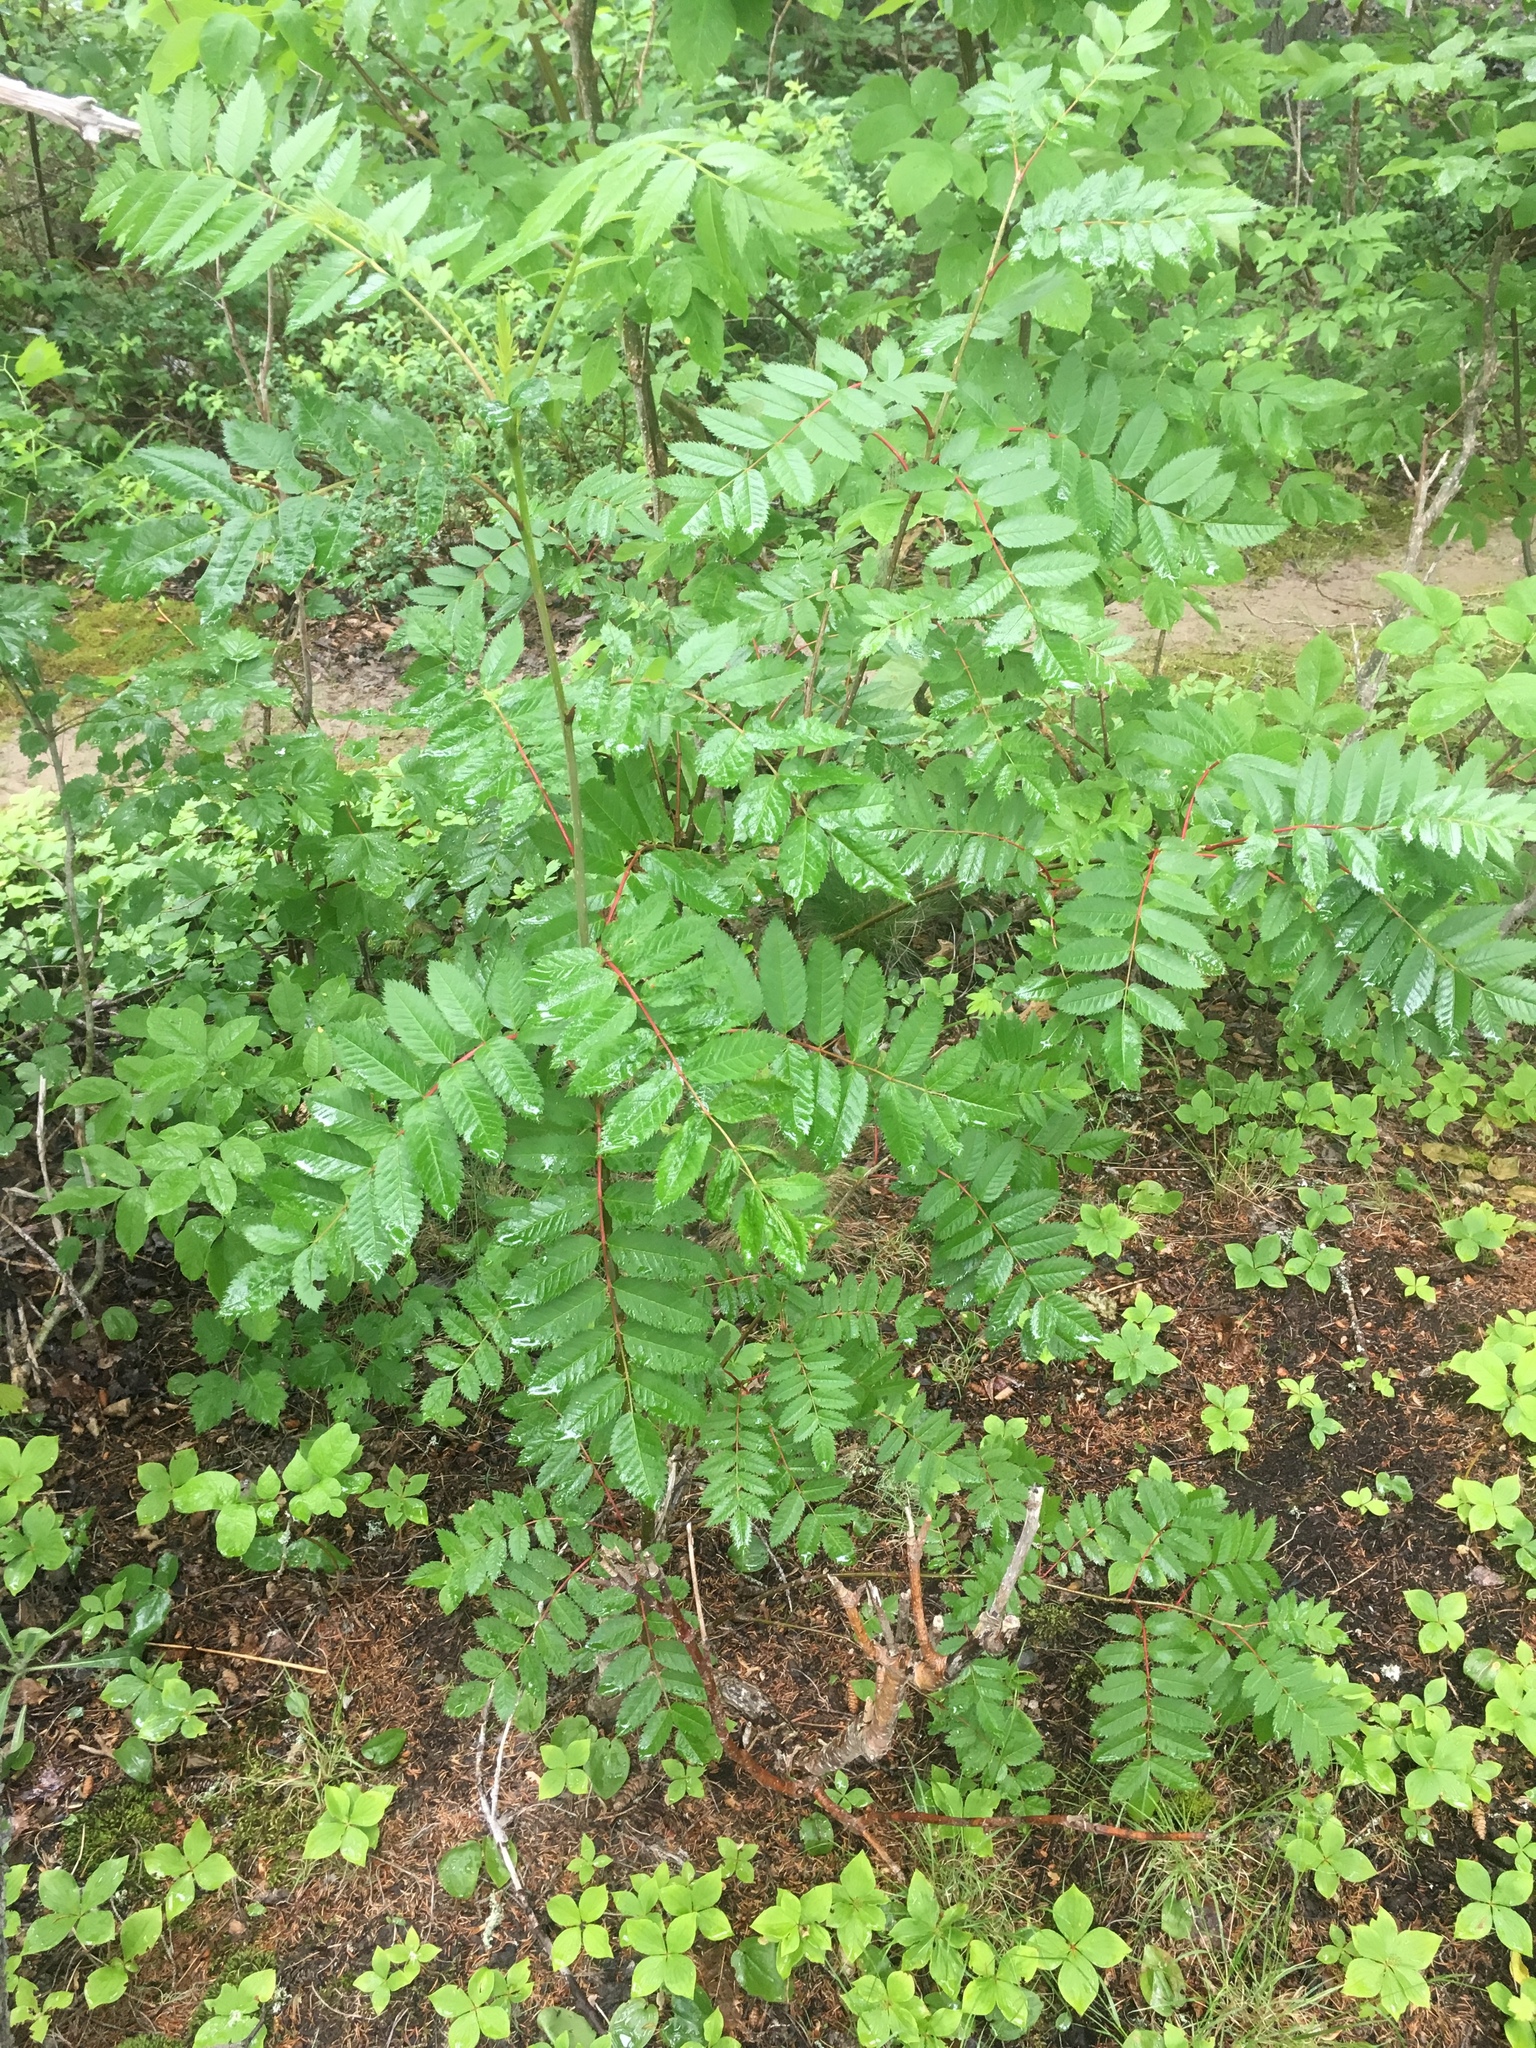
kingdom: Plantae
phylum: Tracheophyta
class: Magnoliopsida
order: Rosales
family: Rosaceae
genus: Sorbus
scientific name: Sorbus americana
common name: American mountain-ash
